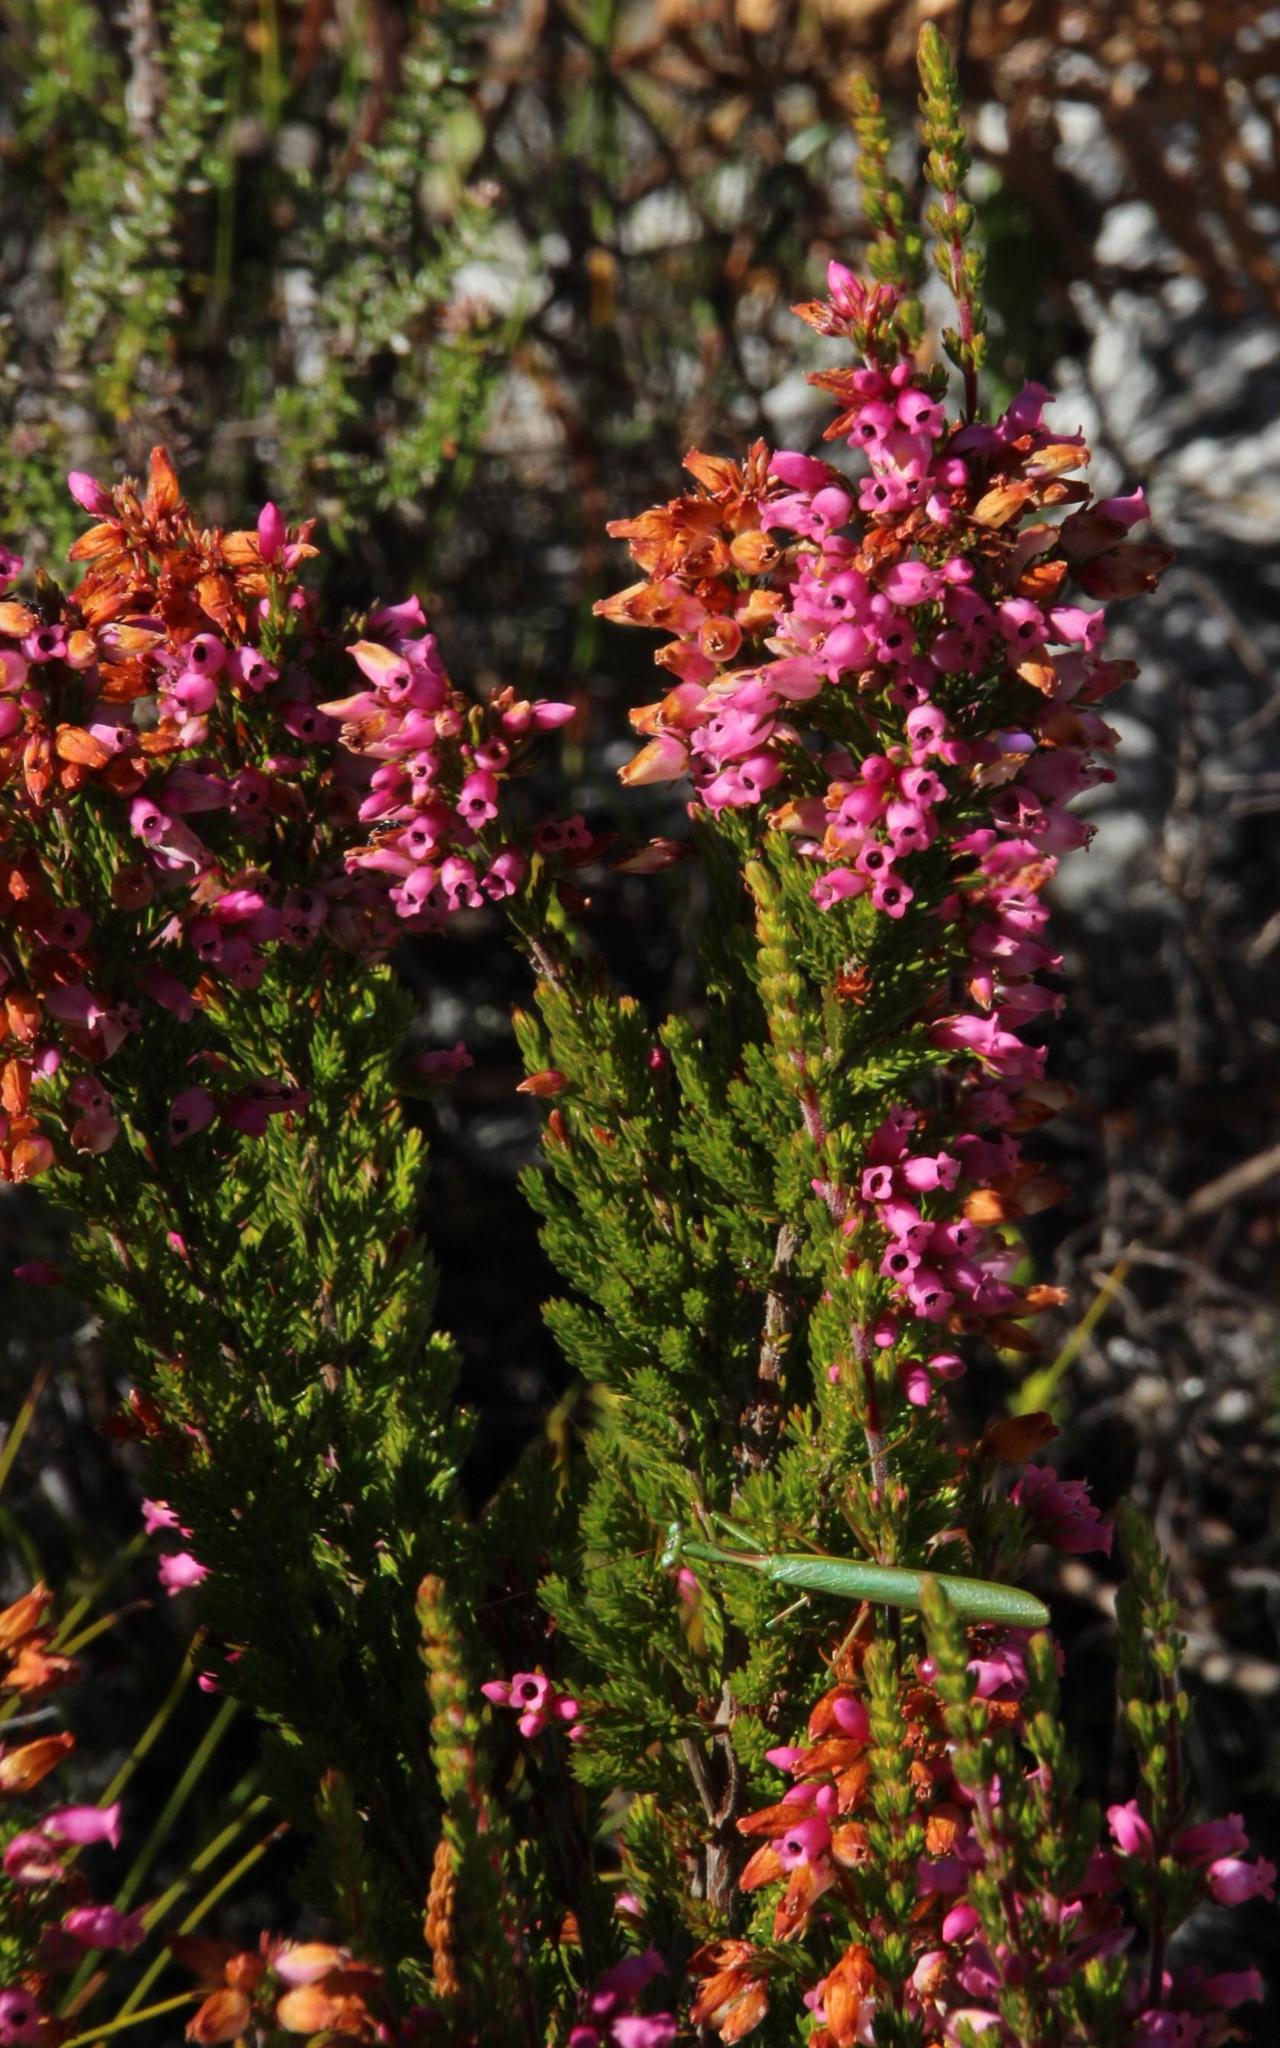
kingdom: Plantae
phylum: Tracheophyta
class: Magnoliopsida
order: Ericales
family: Ericaceae
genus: Erica
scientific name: Erica tenella
